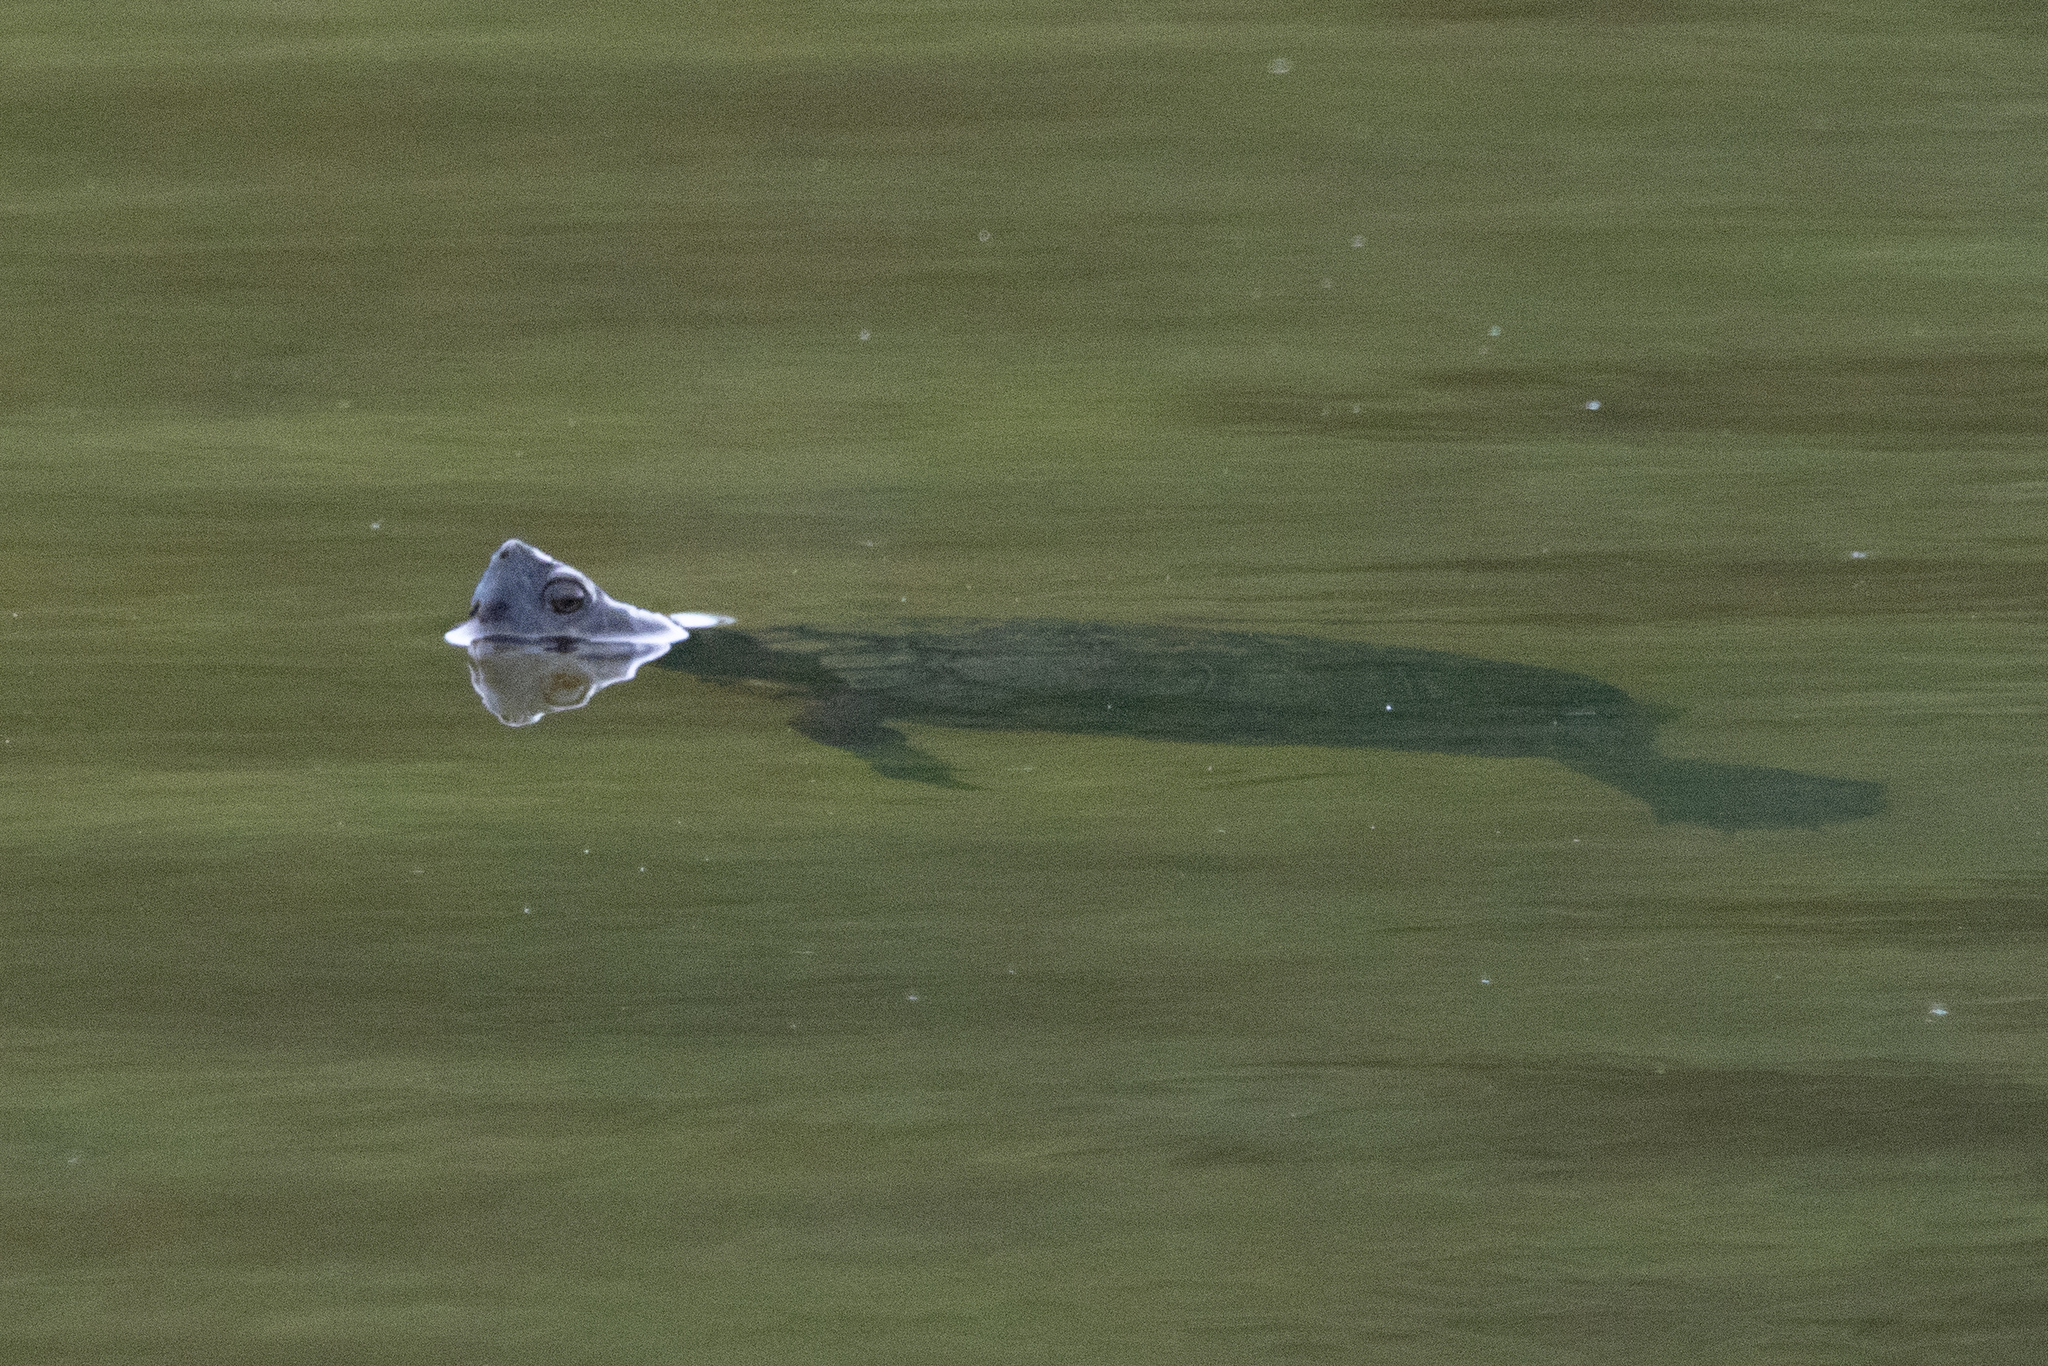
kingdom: Animalia
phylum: Chordata
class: Testudines
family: Emydidae
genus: Trachemys
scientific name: Trachemys scripta
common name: Slider
